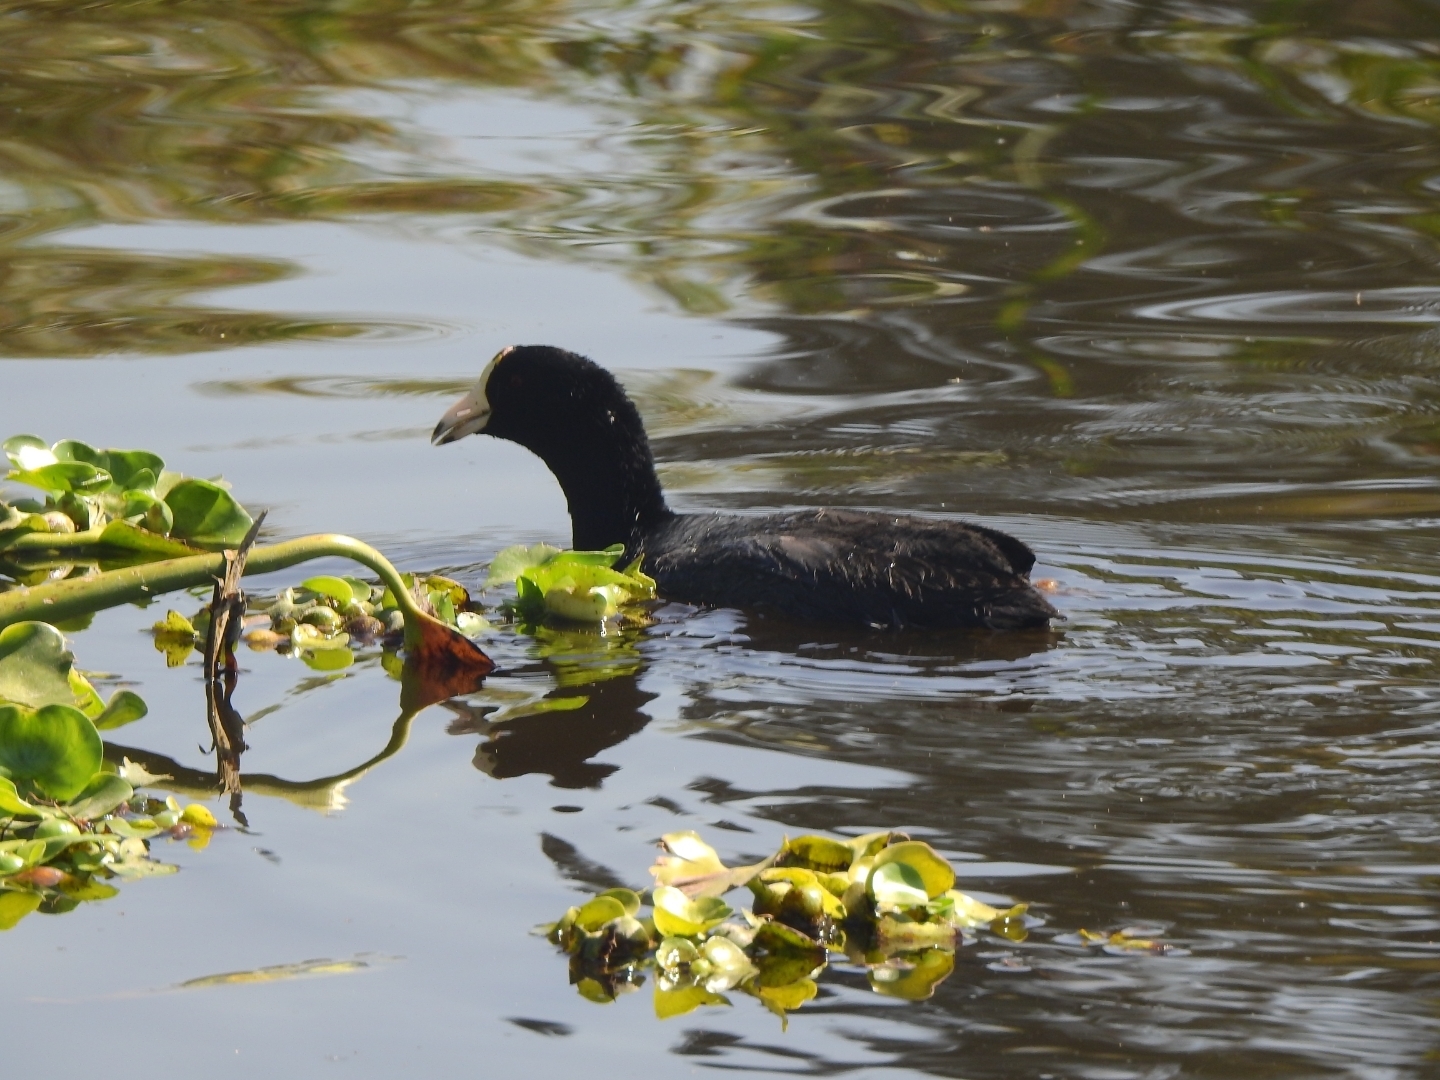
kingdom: Animalia
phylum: Chordata
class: Aves
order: Gruiformes
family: Rallidae
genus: Fulica
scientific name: Fulica americana
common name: American coot
